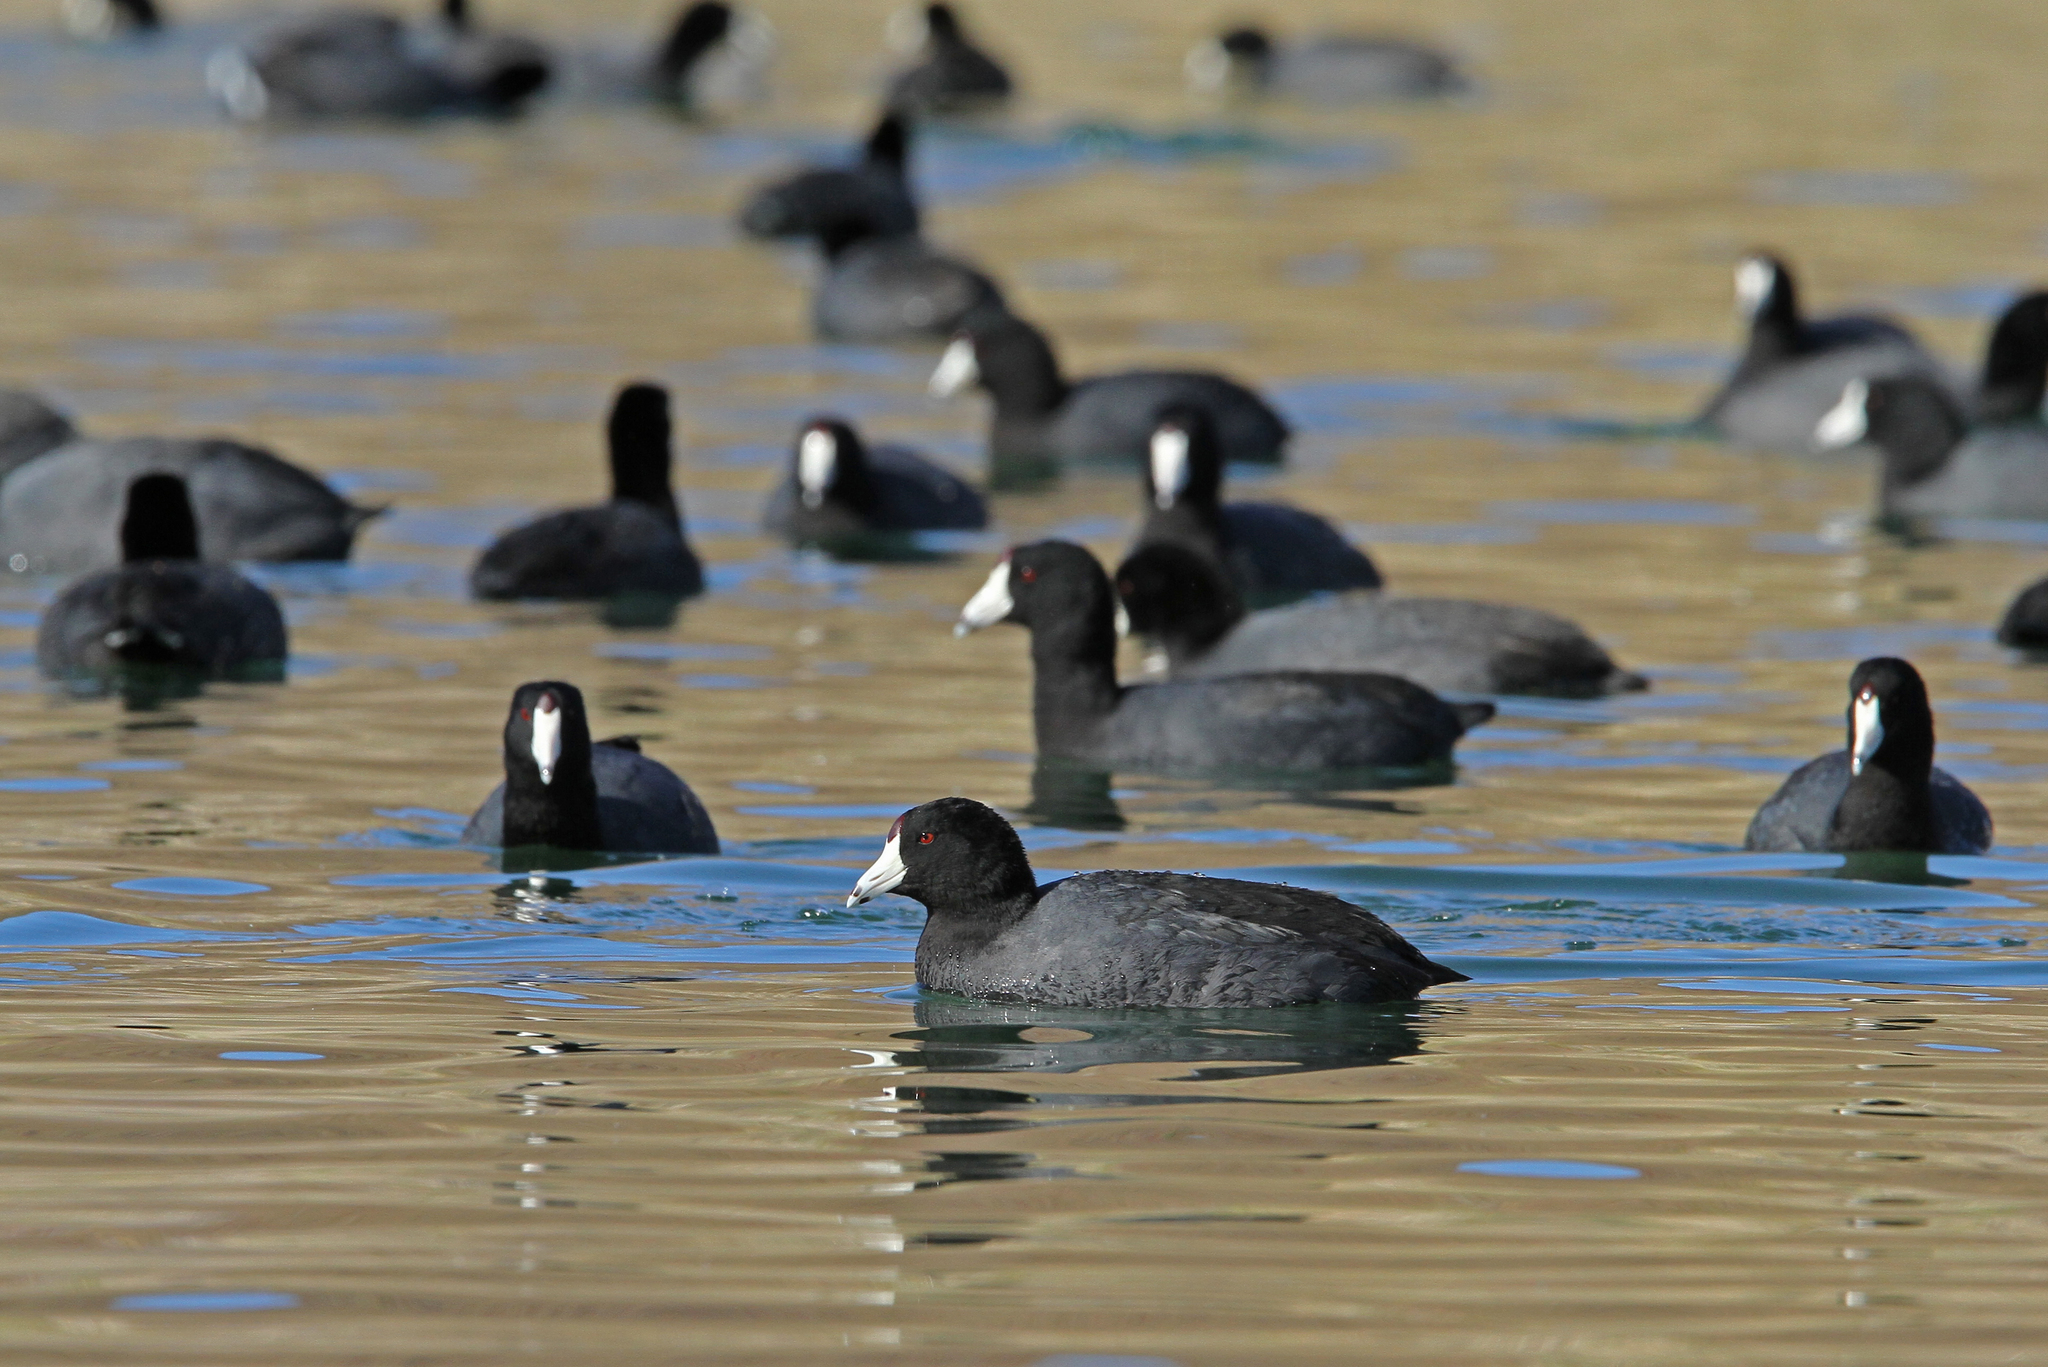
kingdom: Animalia
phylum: Chordata
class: Aves
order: Gruiformes
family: Rallidae
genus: Fulica
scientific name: Fulica americana
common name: American coot
